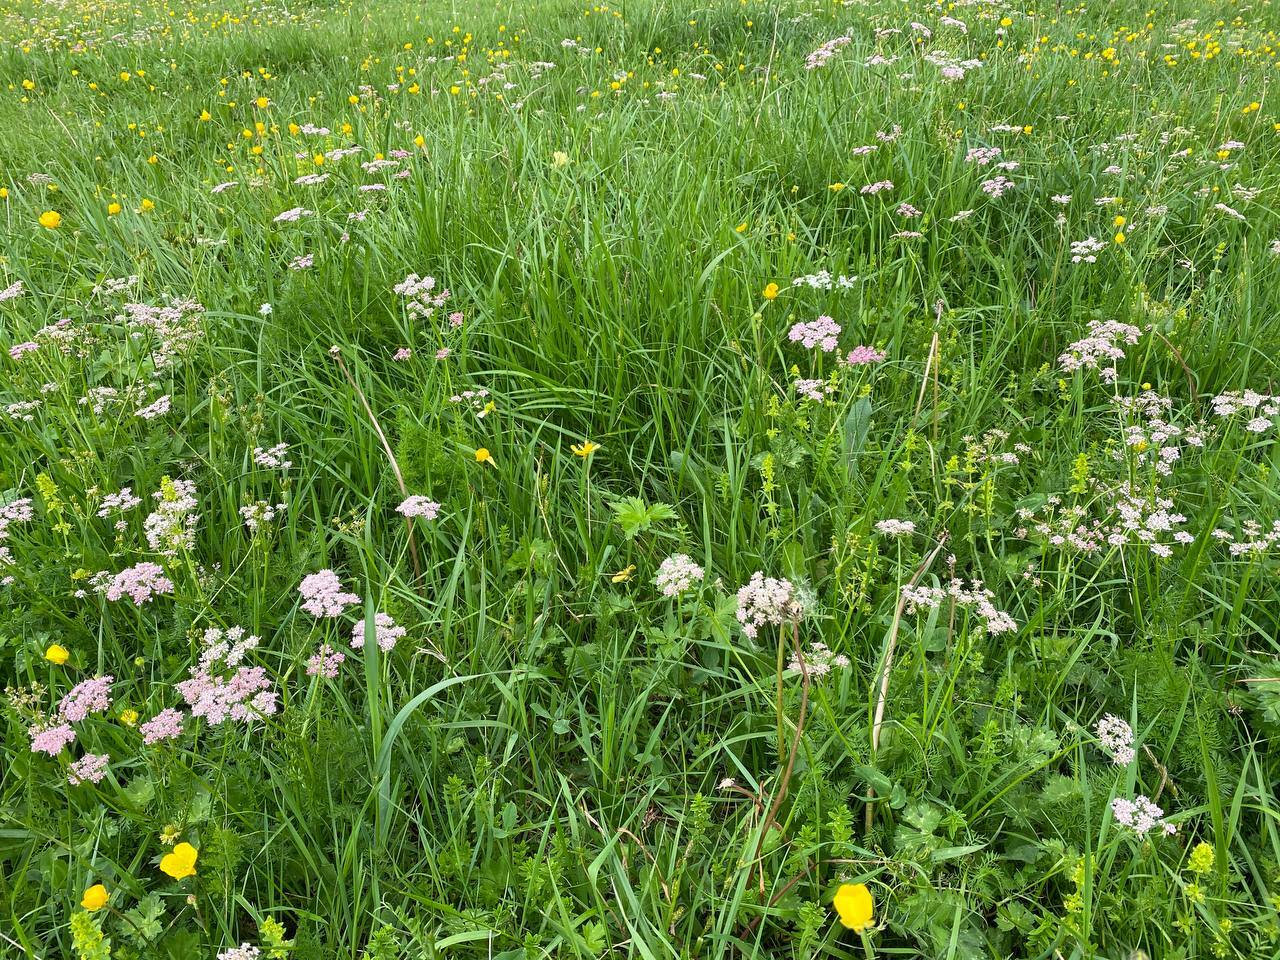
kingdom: Plantae
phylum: Tracheophyta
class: Magnoliopsida
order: Apiales
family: Apiaceae
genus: Carum
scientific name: Carum carvi
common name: Caraway
